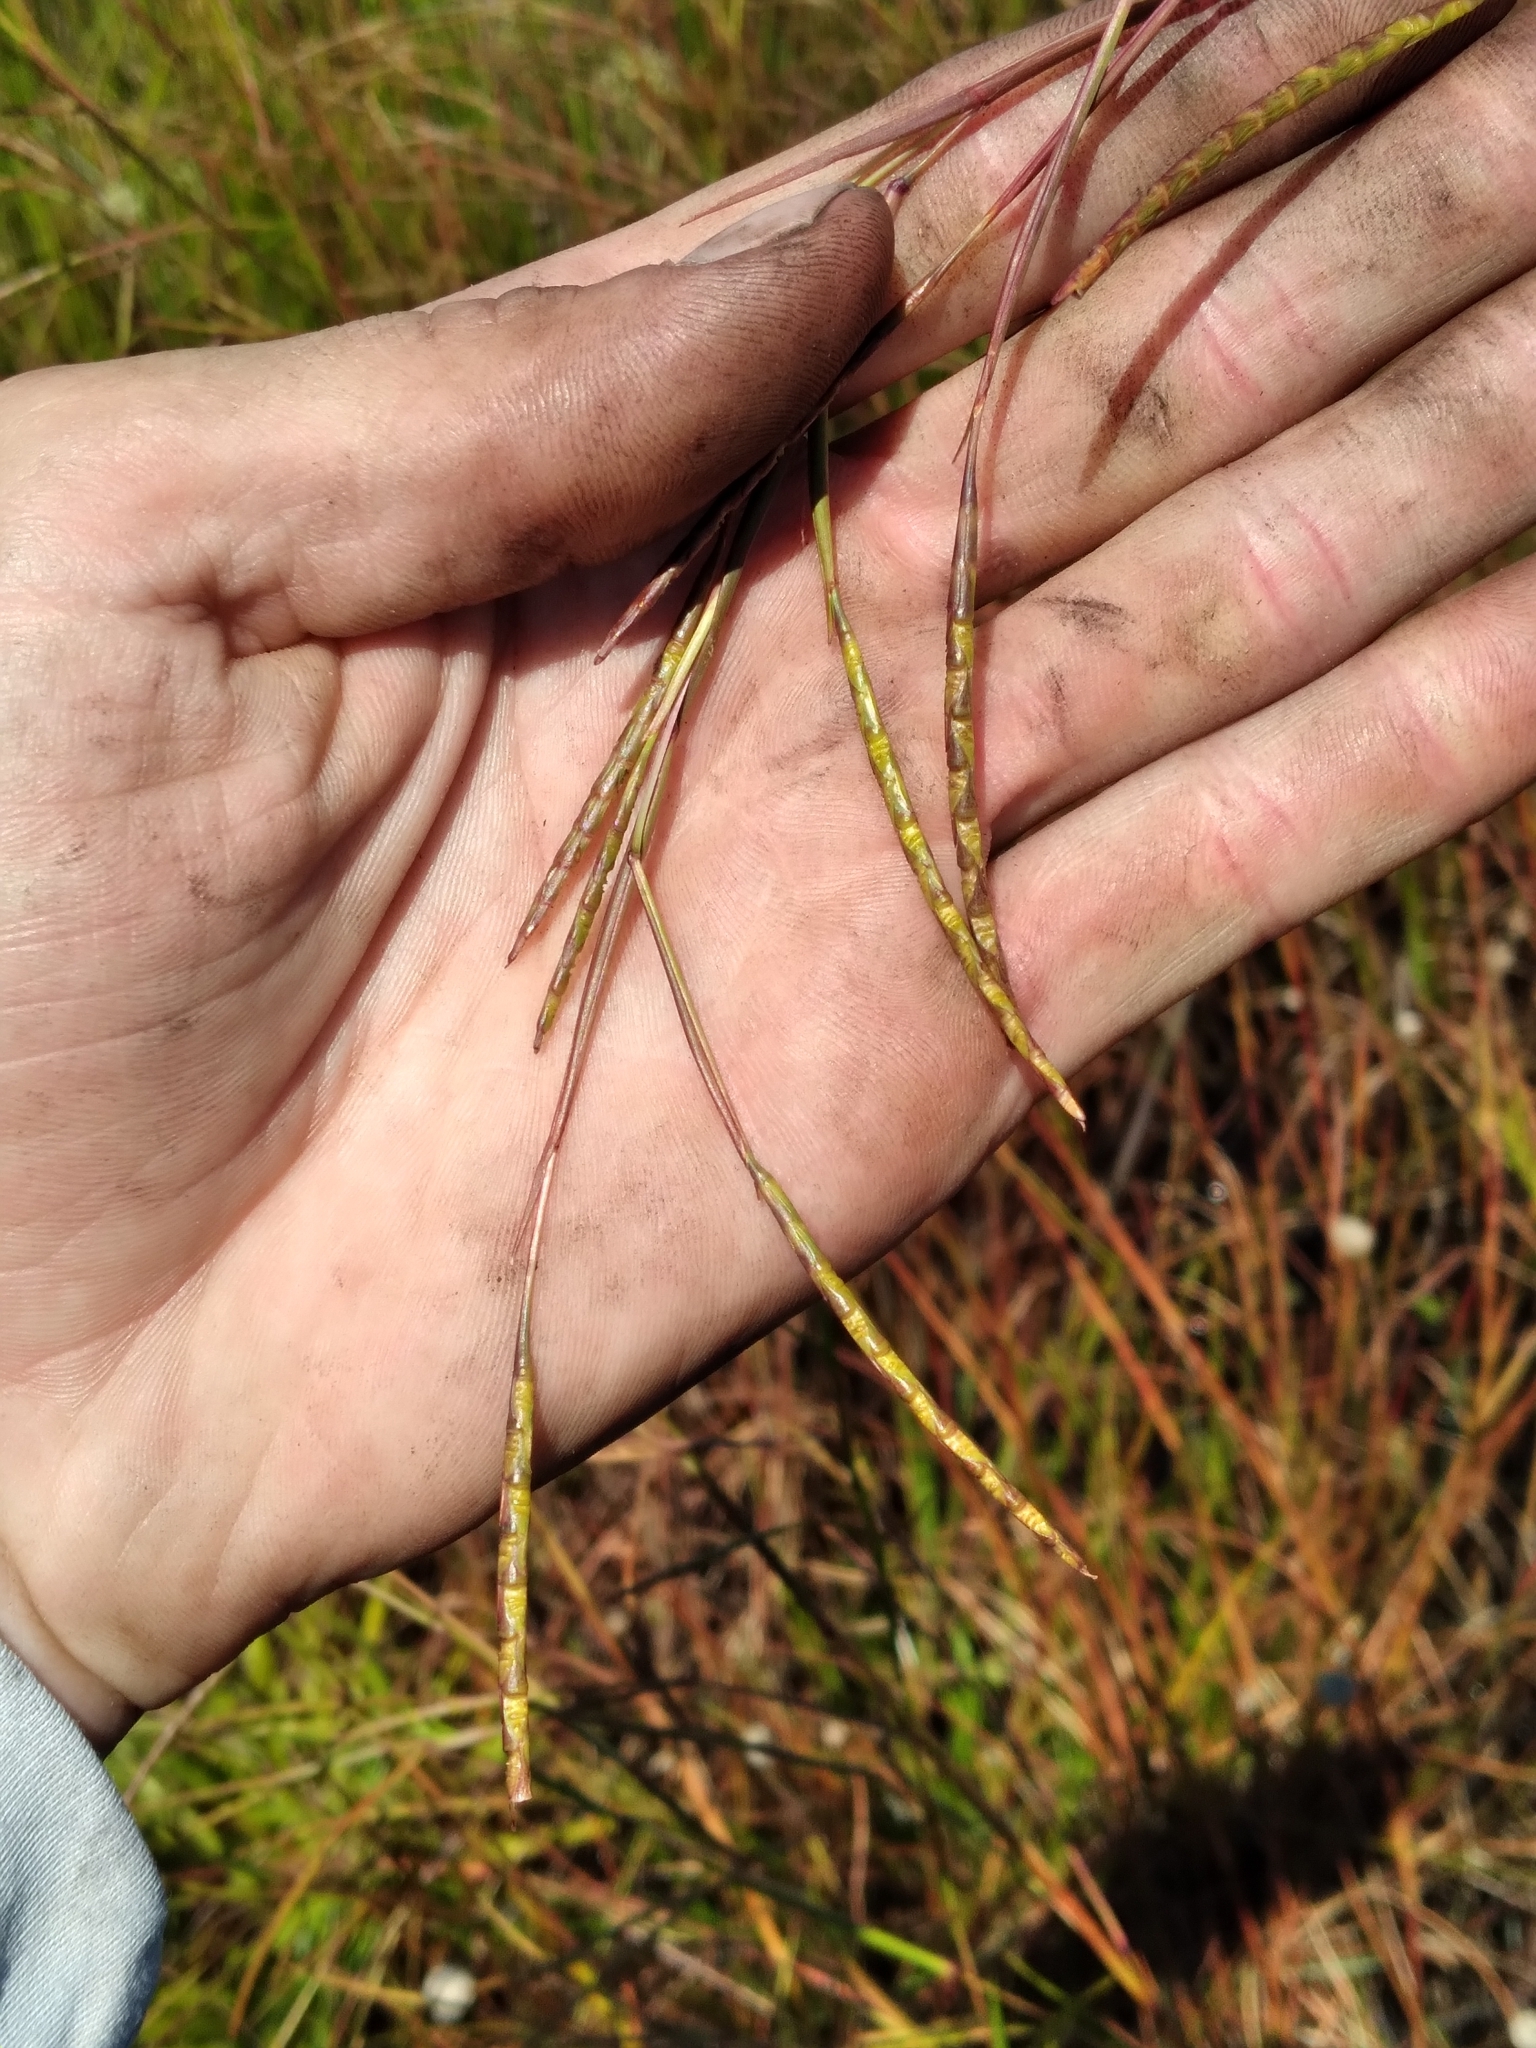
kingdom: Plantae
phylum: Tracheophyta
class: Liliopsida
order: Poales
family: Poaceae
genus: Rottboellia
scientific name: Rottboellia rugosa
